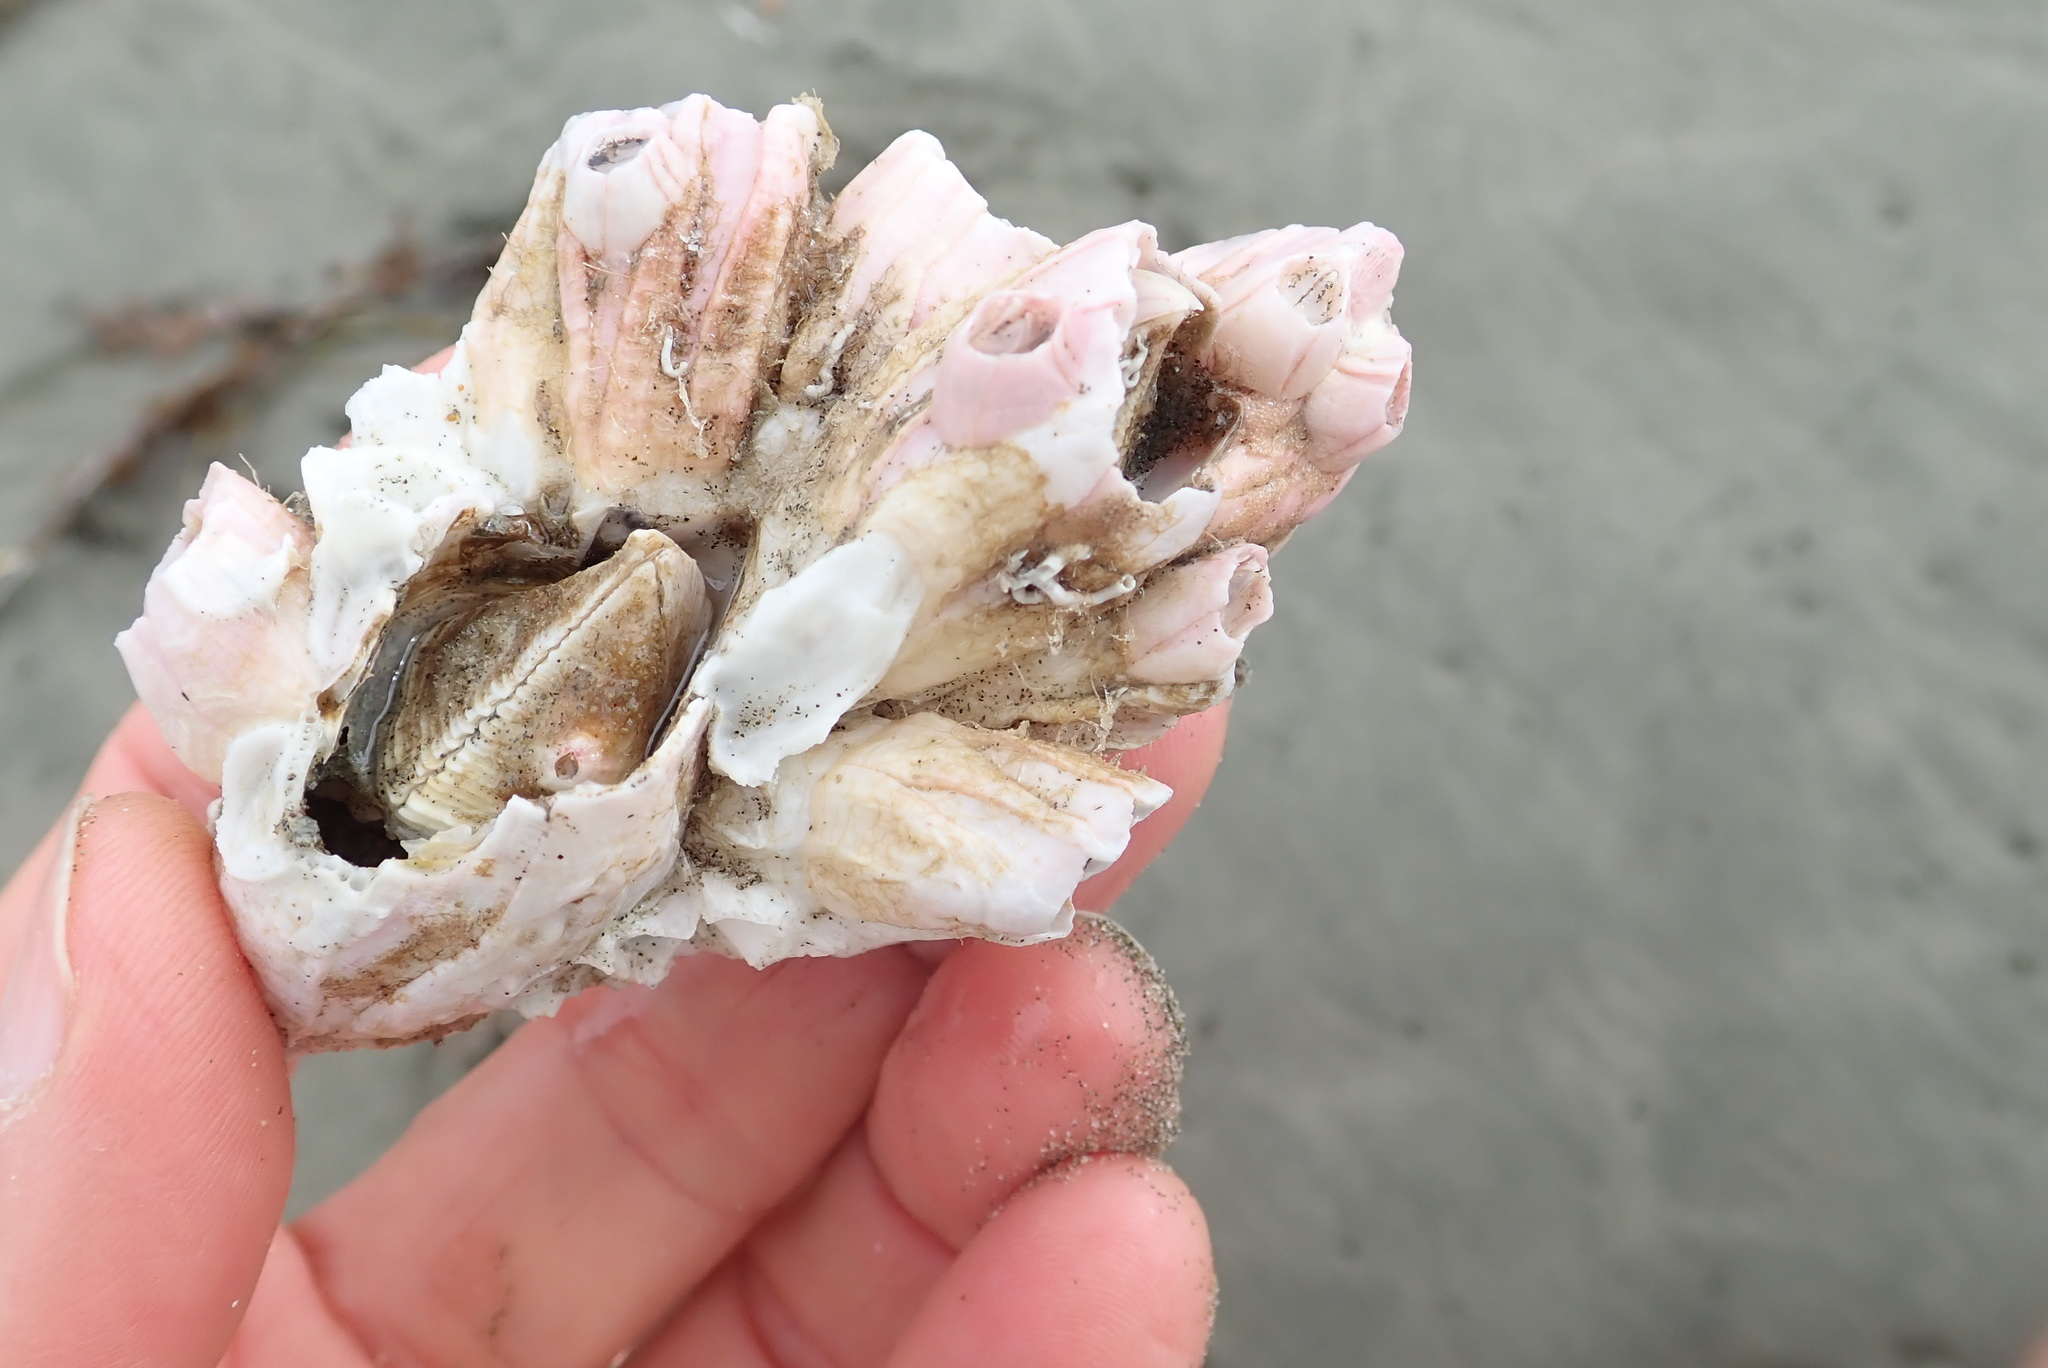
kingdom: Animalia
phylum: Arthropoda
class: Maxillopoda
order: Sessilia
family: Balanidae
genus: Notomegabalanus
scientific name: Notomegabalanus decorus
